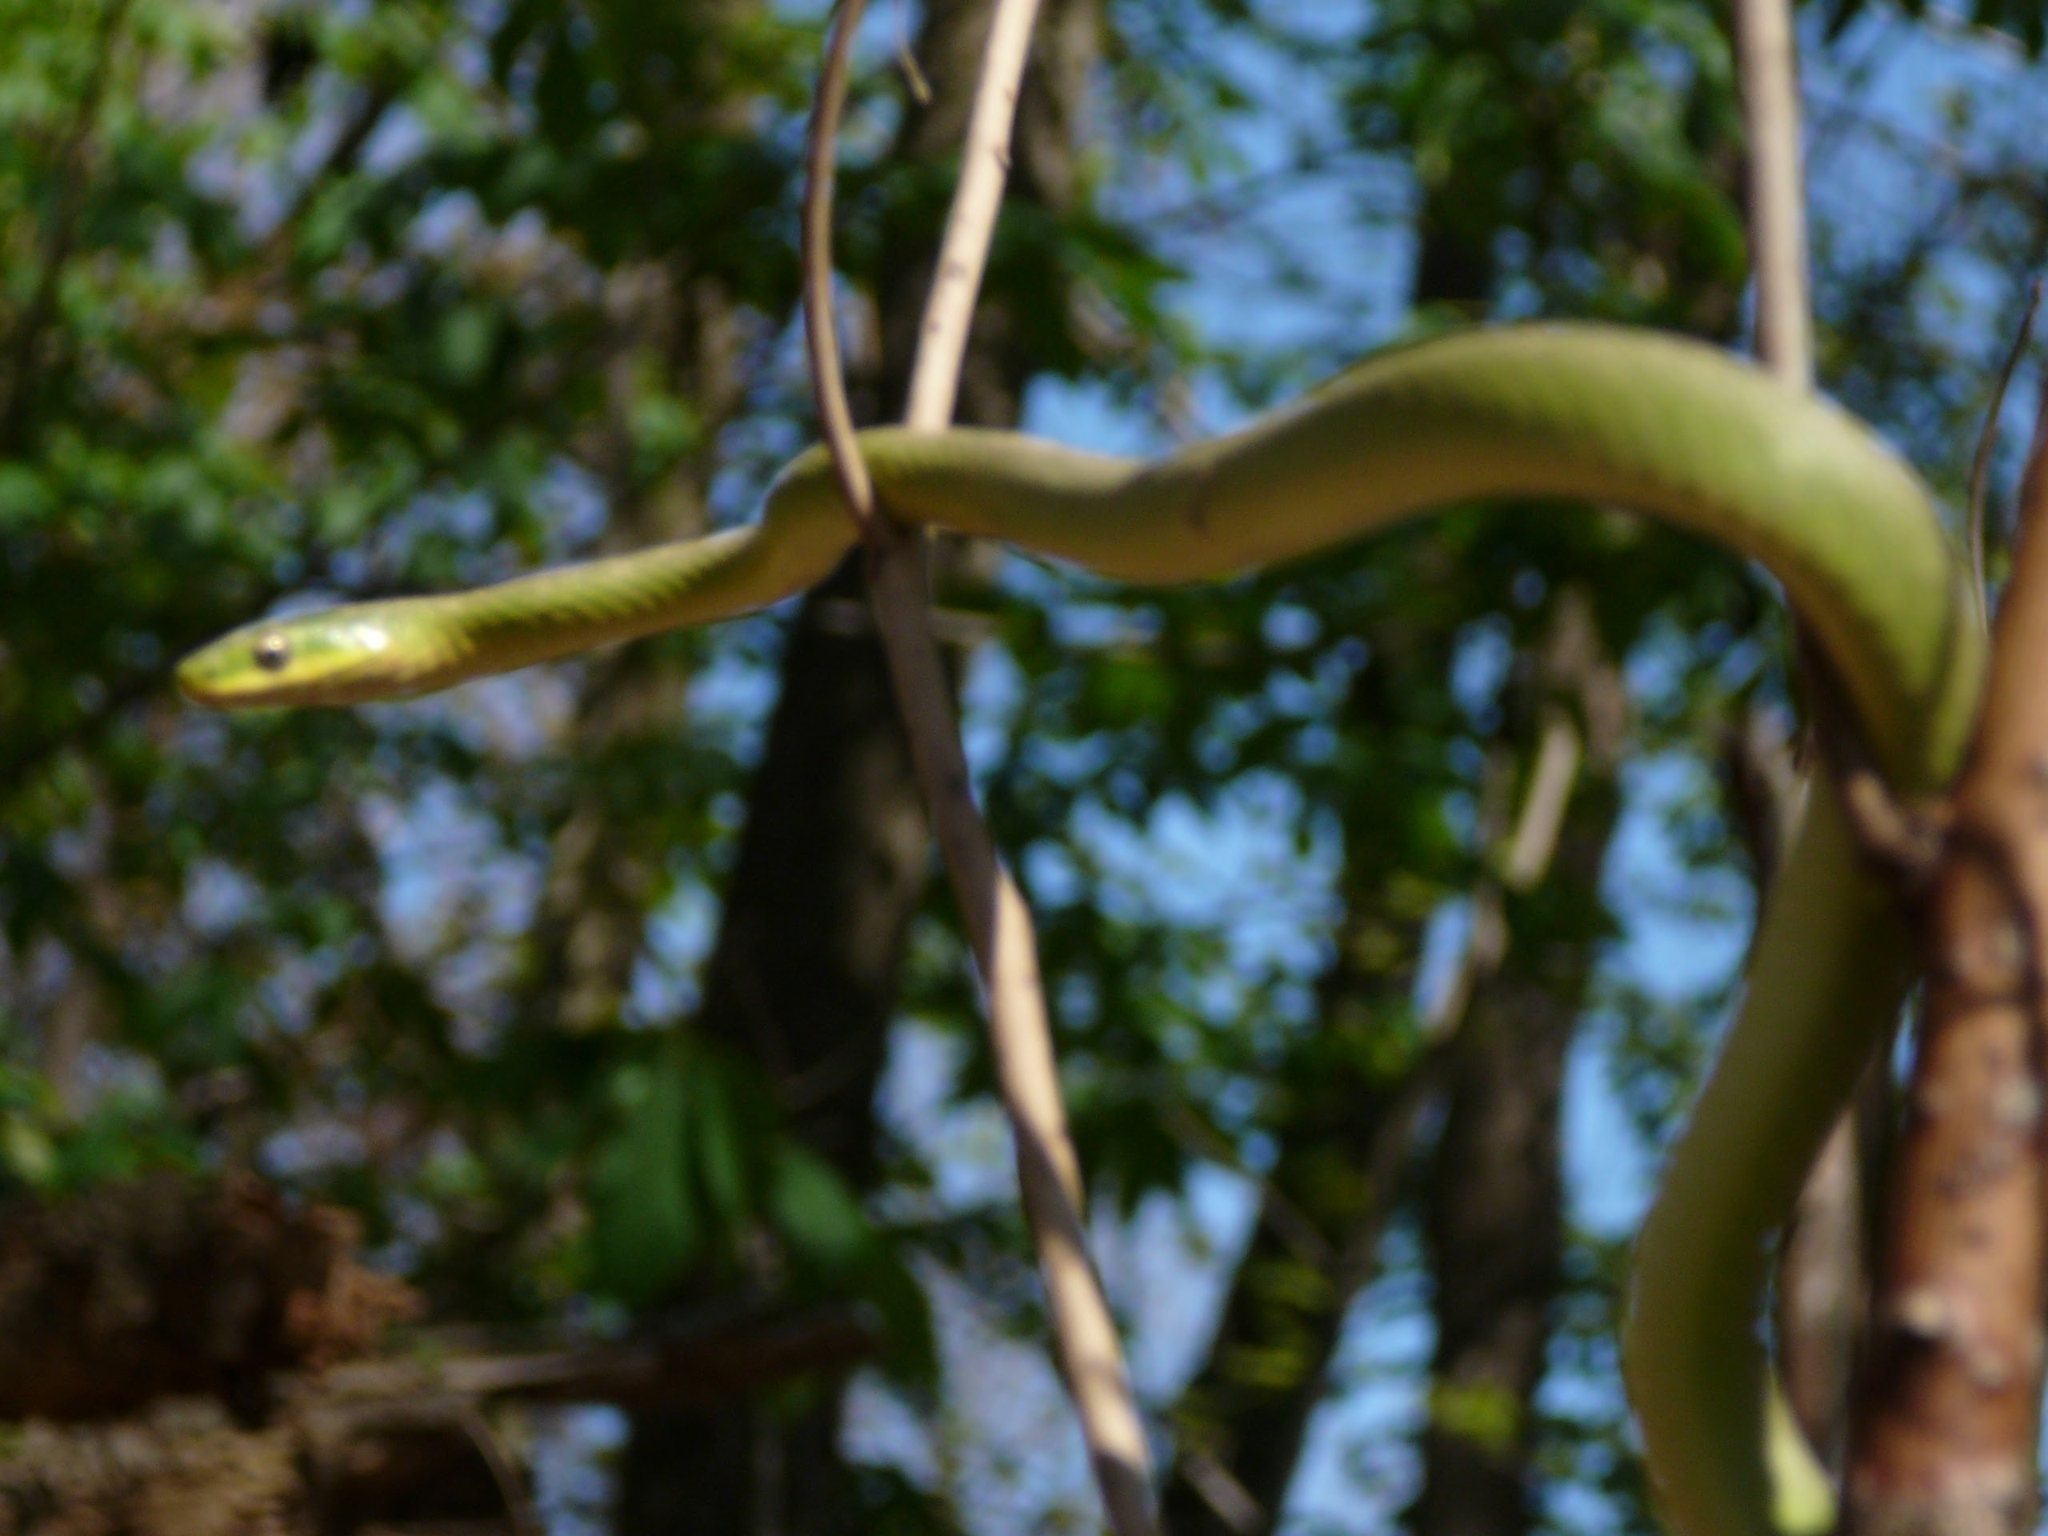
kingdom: Animalia
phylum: Chordata
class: Squamata
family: Colubridae
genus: Opheodrys
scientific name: Opheodrys aestivus
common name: Rough greensnake
